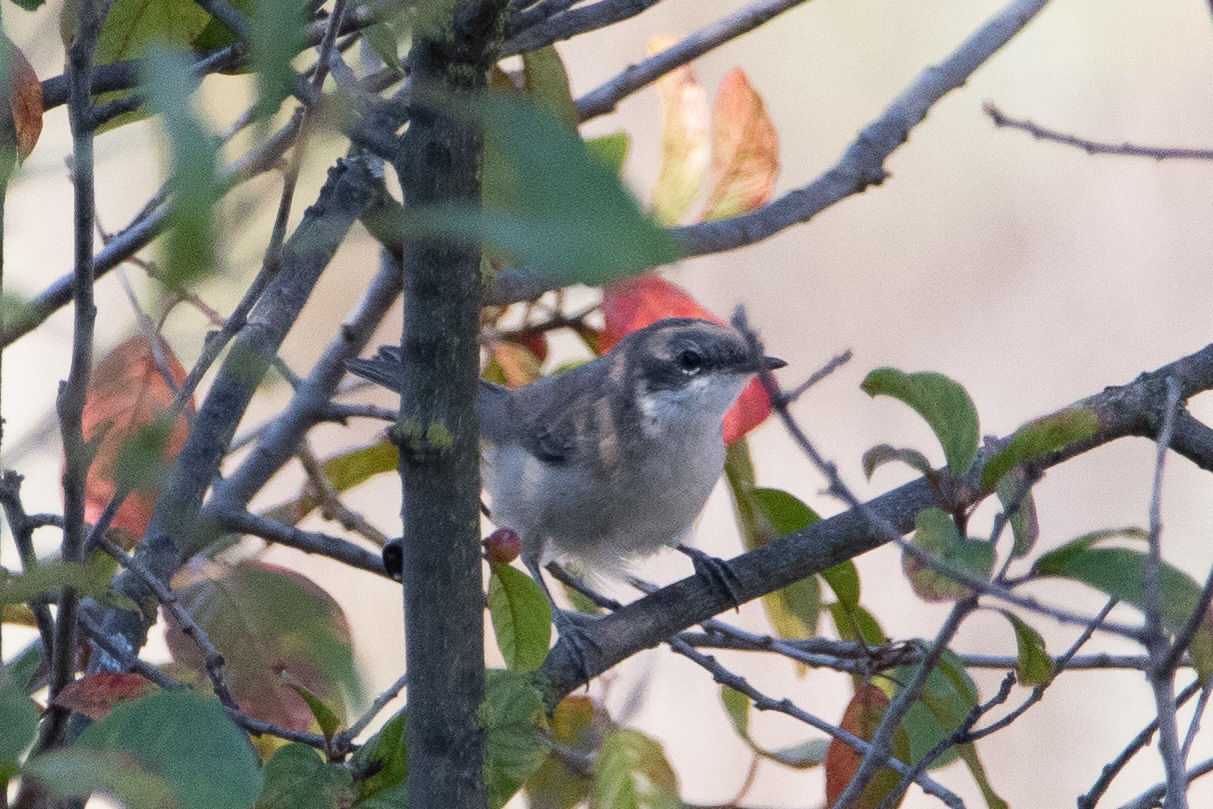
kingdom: Animalia
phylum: Chordata
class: Aves
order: Passeriformes
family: Sylviidae
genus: Sylvia
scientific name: Sylvia curruca
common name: Lesser whitethroat
